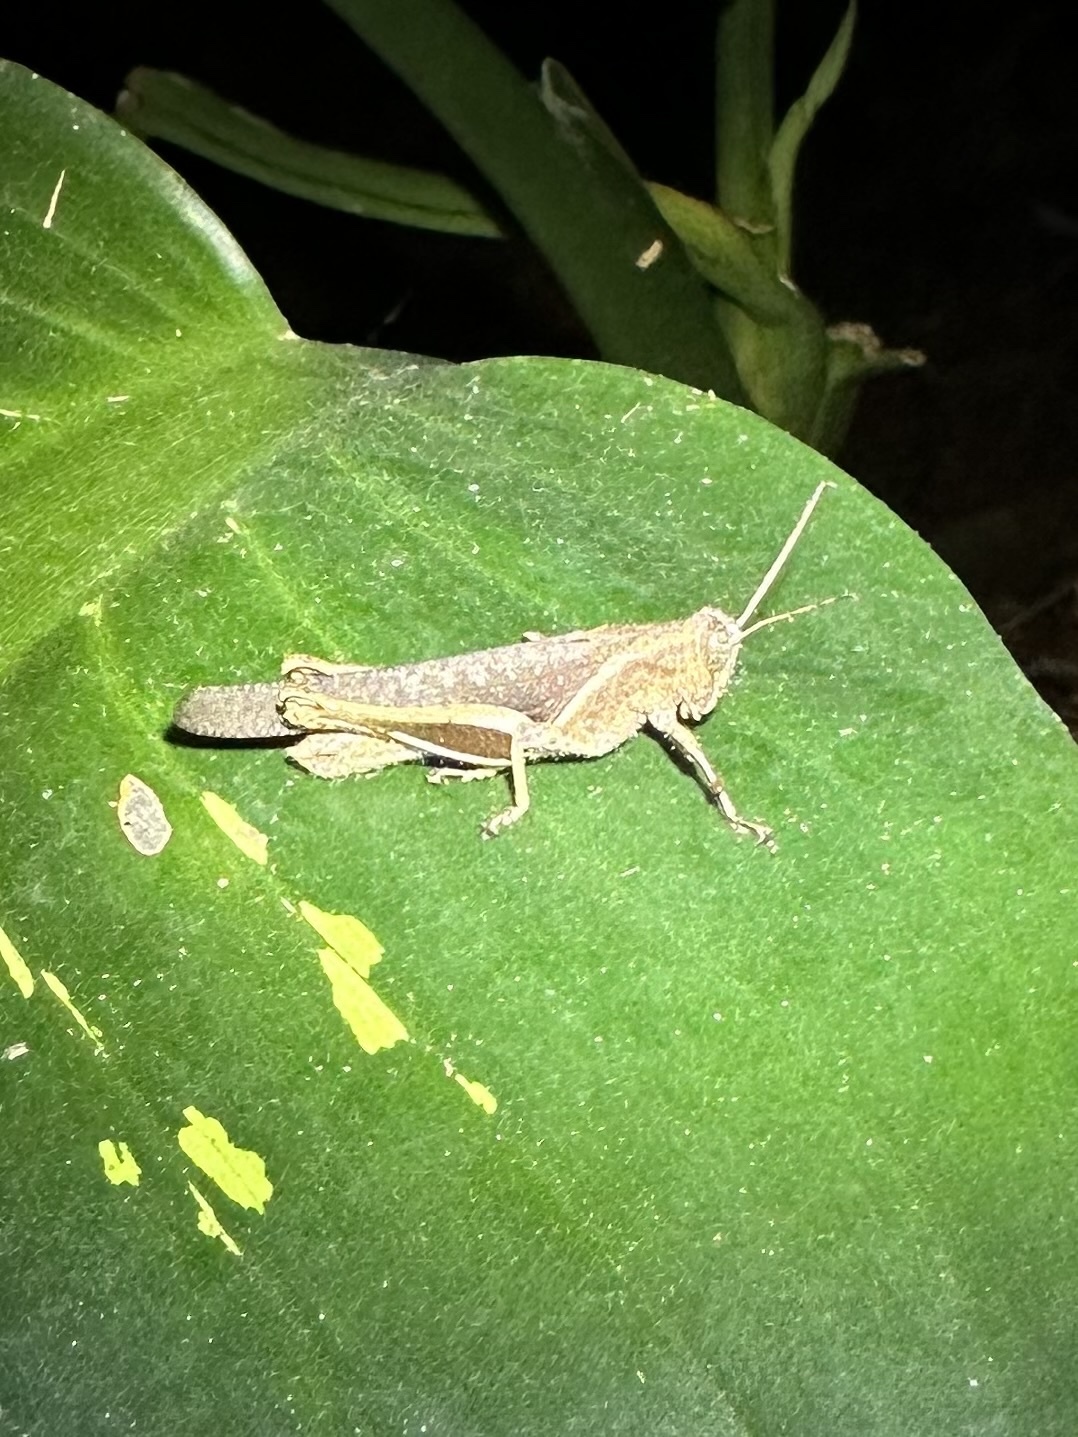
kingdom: Animalia
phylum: Arthropoda
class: Insecta
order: Orthoptera
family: Acrididae
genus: Abracris
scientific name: Abracris flavolineata
